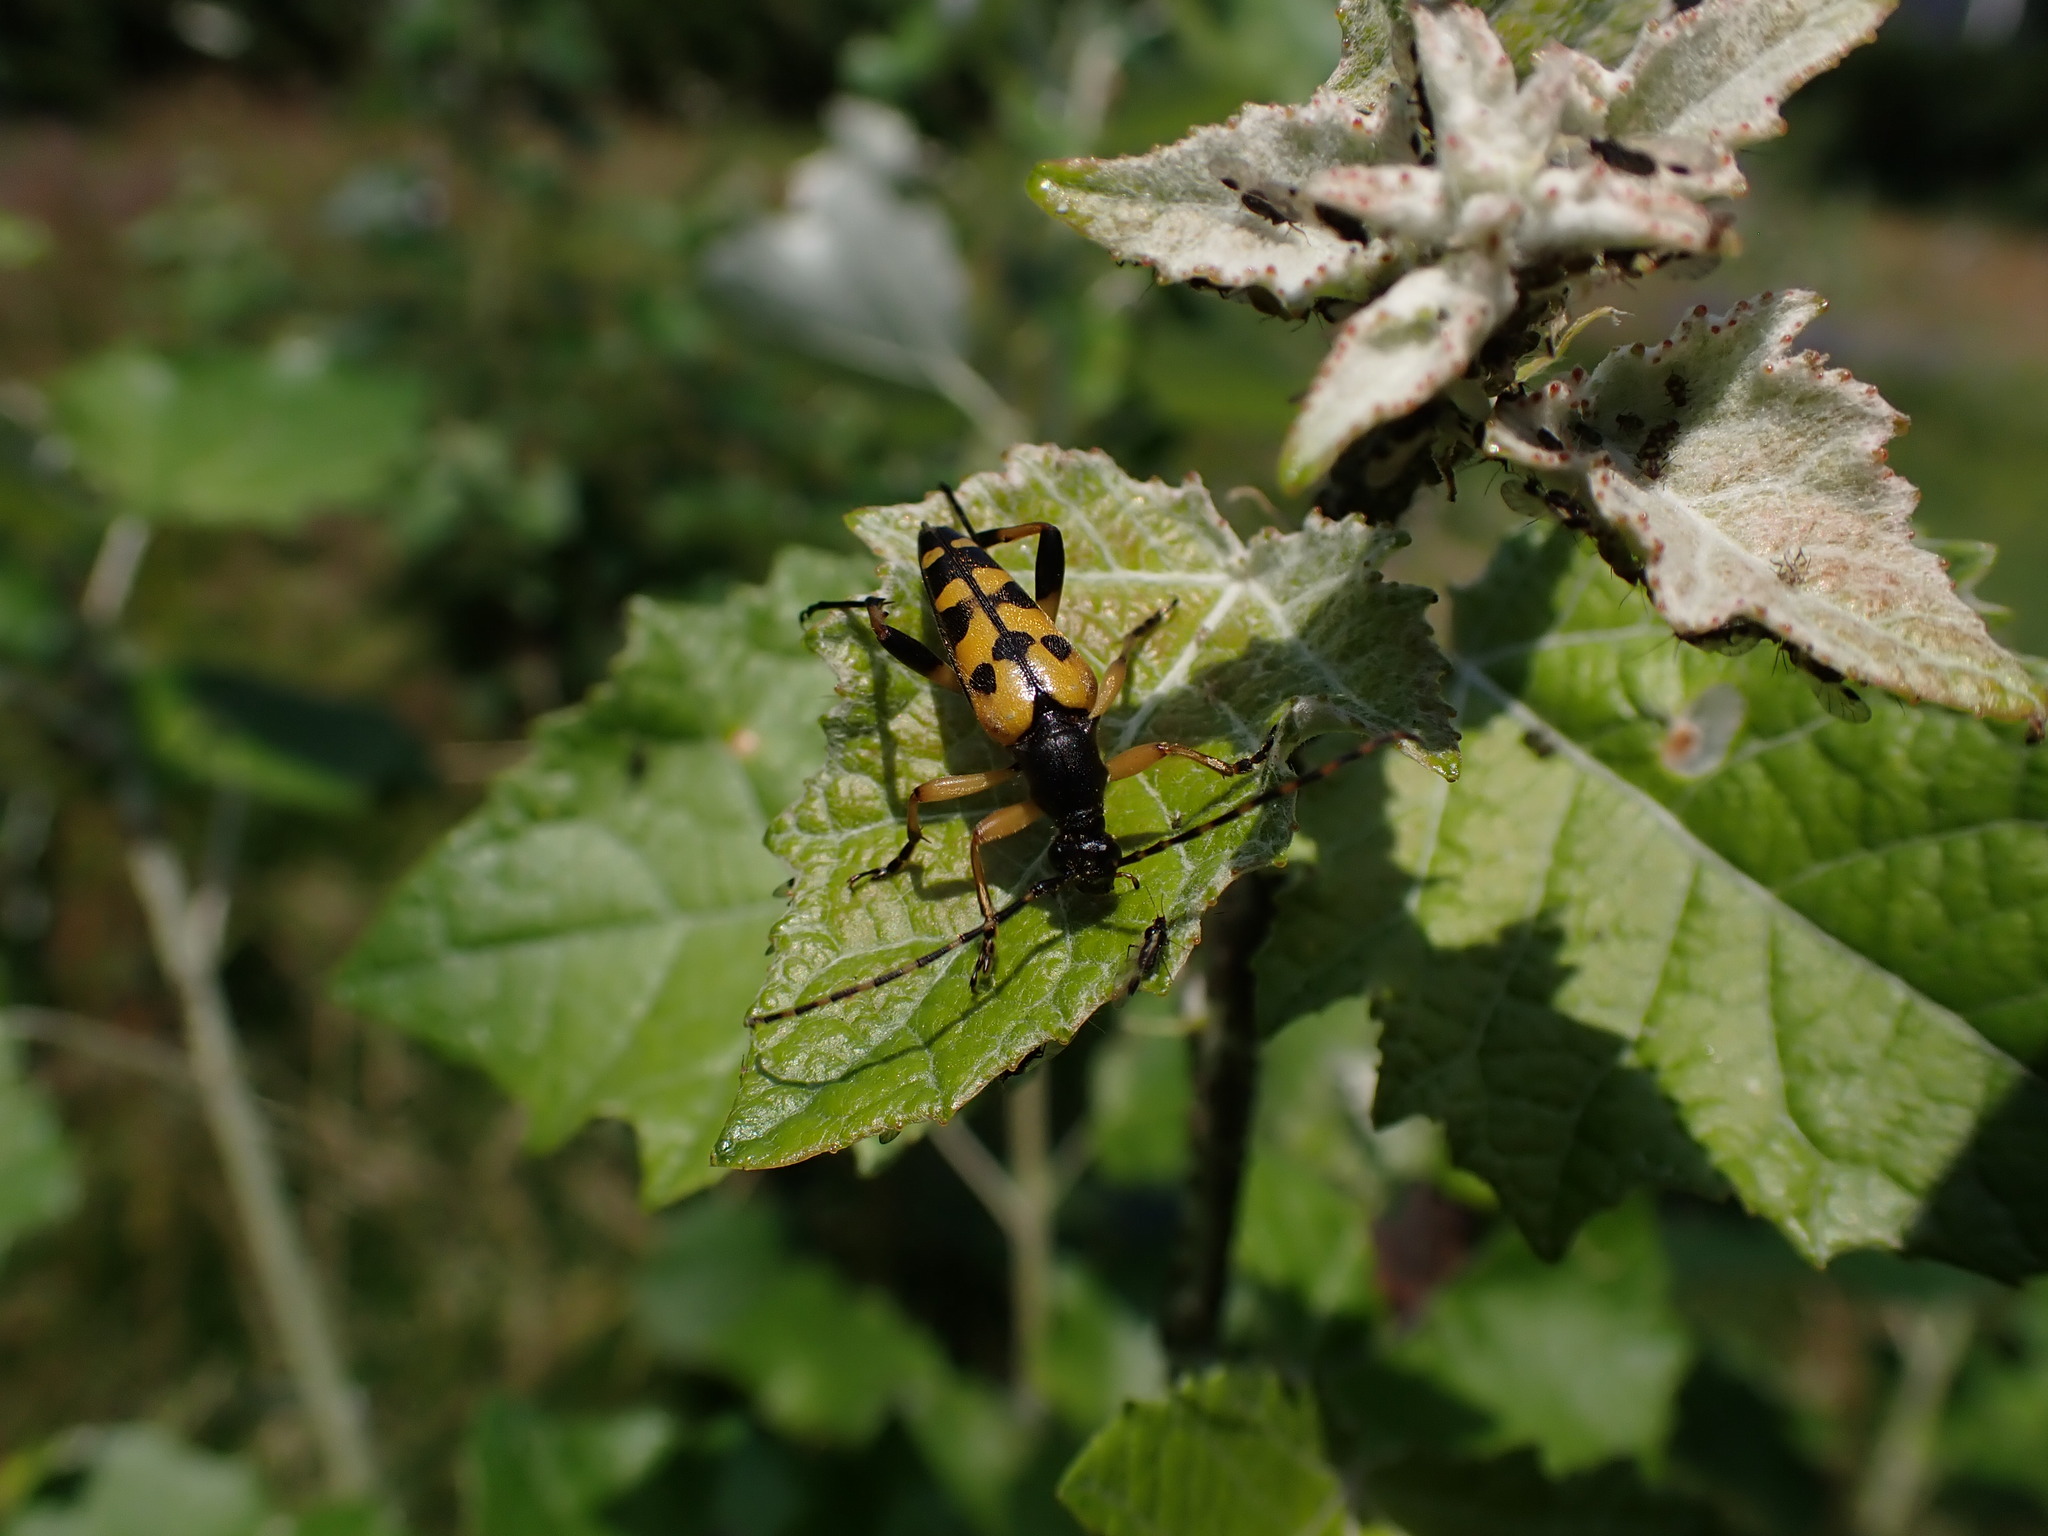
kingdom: Animalia
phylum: Arthropoda
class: Insecta
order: Coleoptera
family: Cerambycidae
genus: Rutpela
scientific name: Rutpela maculata
